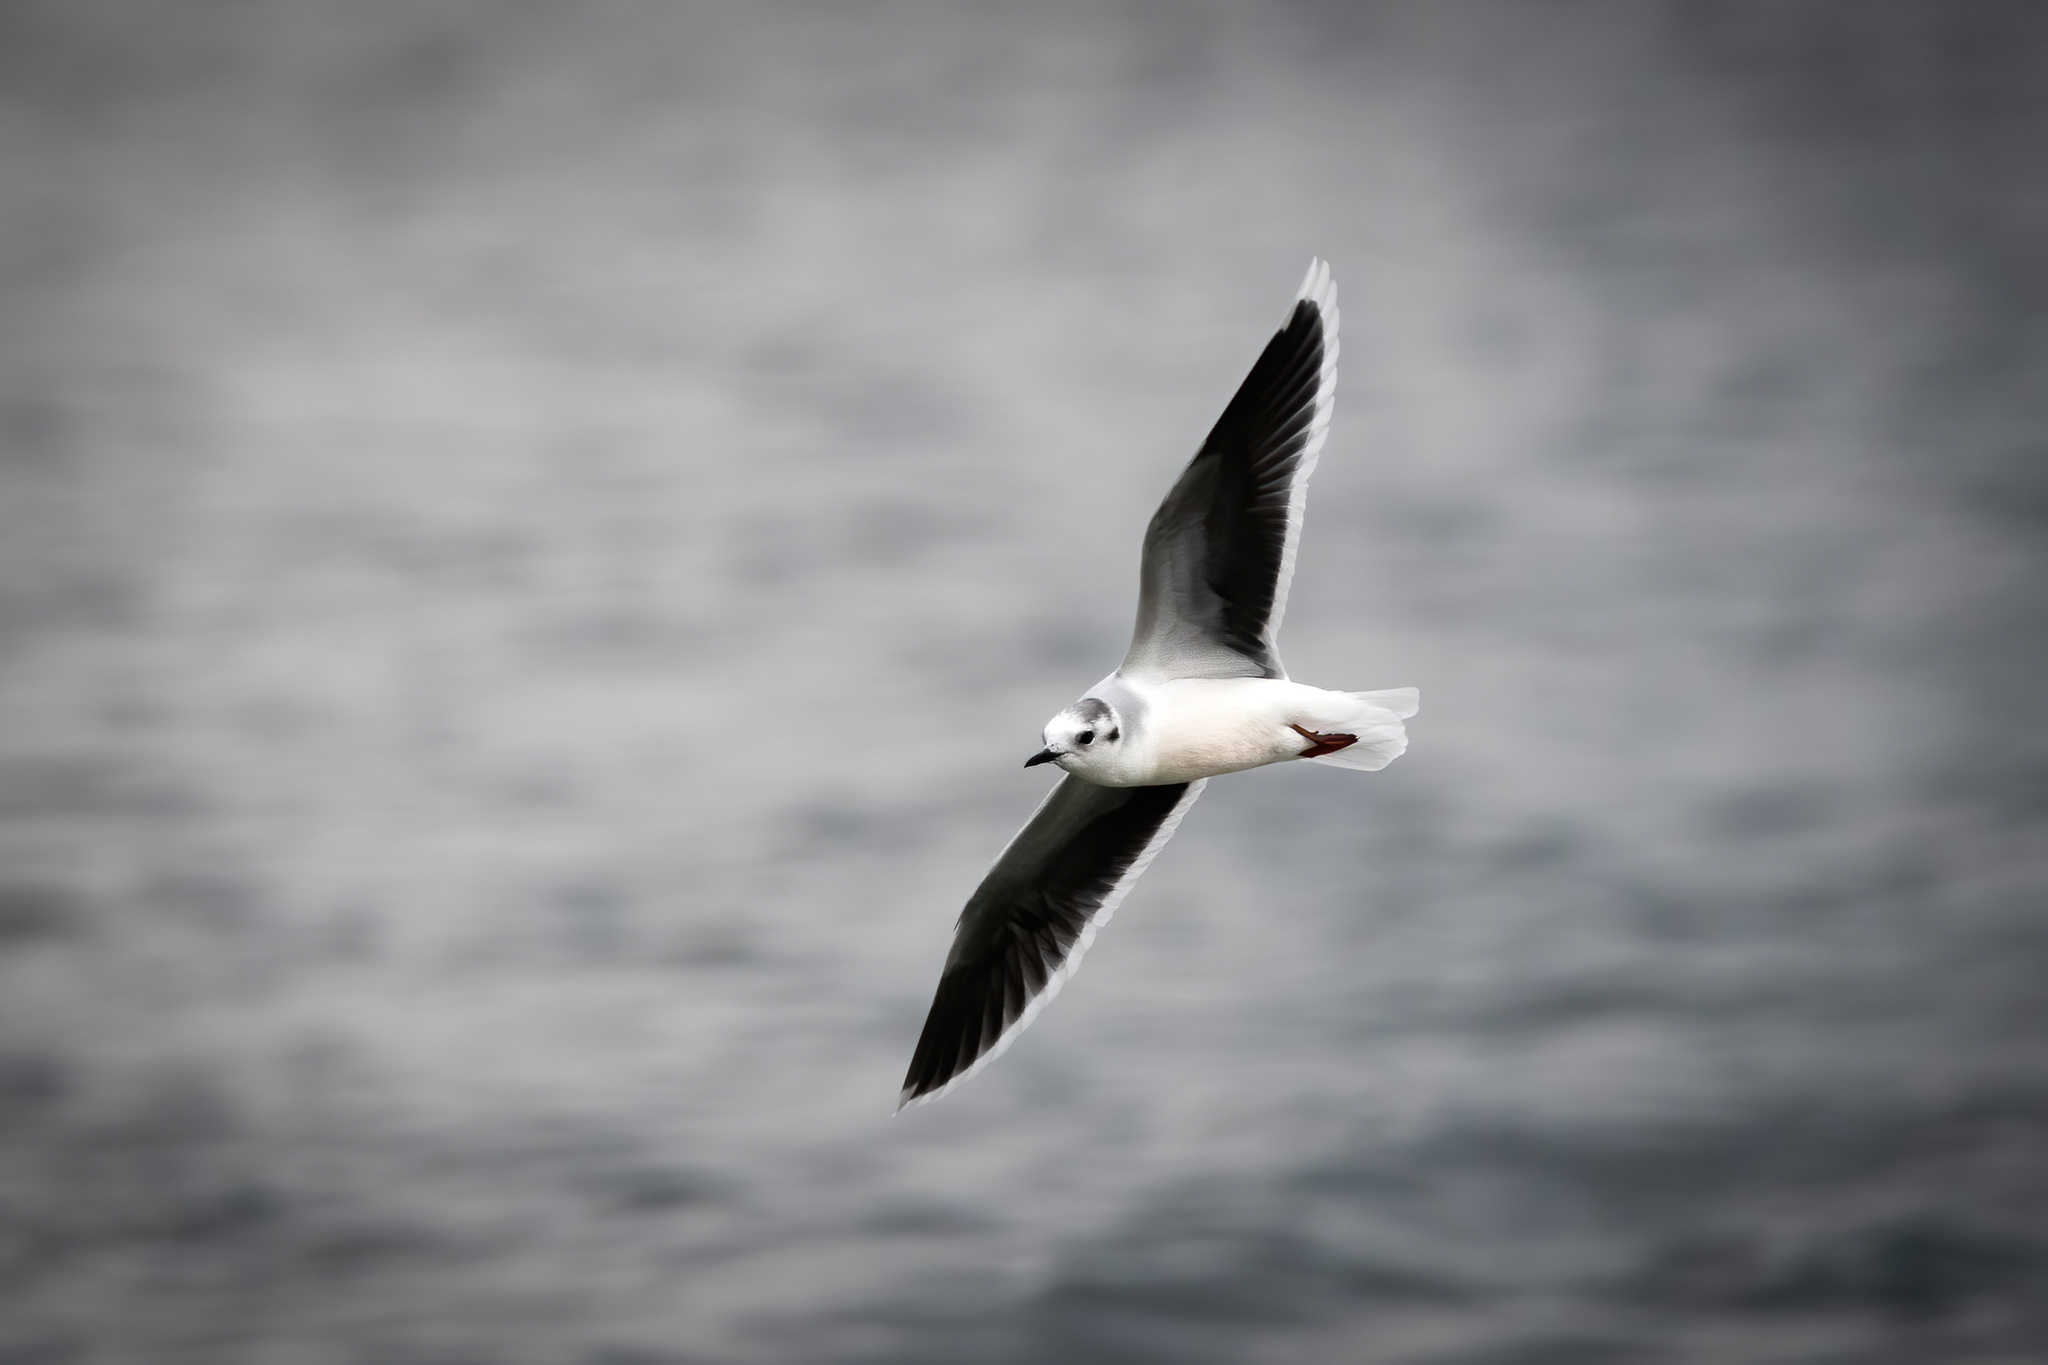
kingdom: Animalia
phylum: Chordata
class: Aves
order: Charadriiformes
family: Laridae
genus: Hydrocoloeus
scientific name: Hydrocoloeus minutus
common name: Little gull
